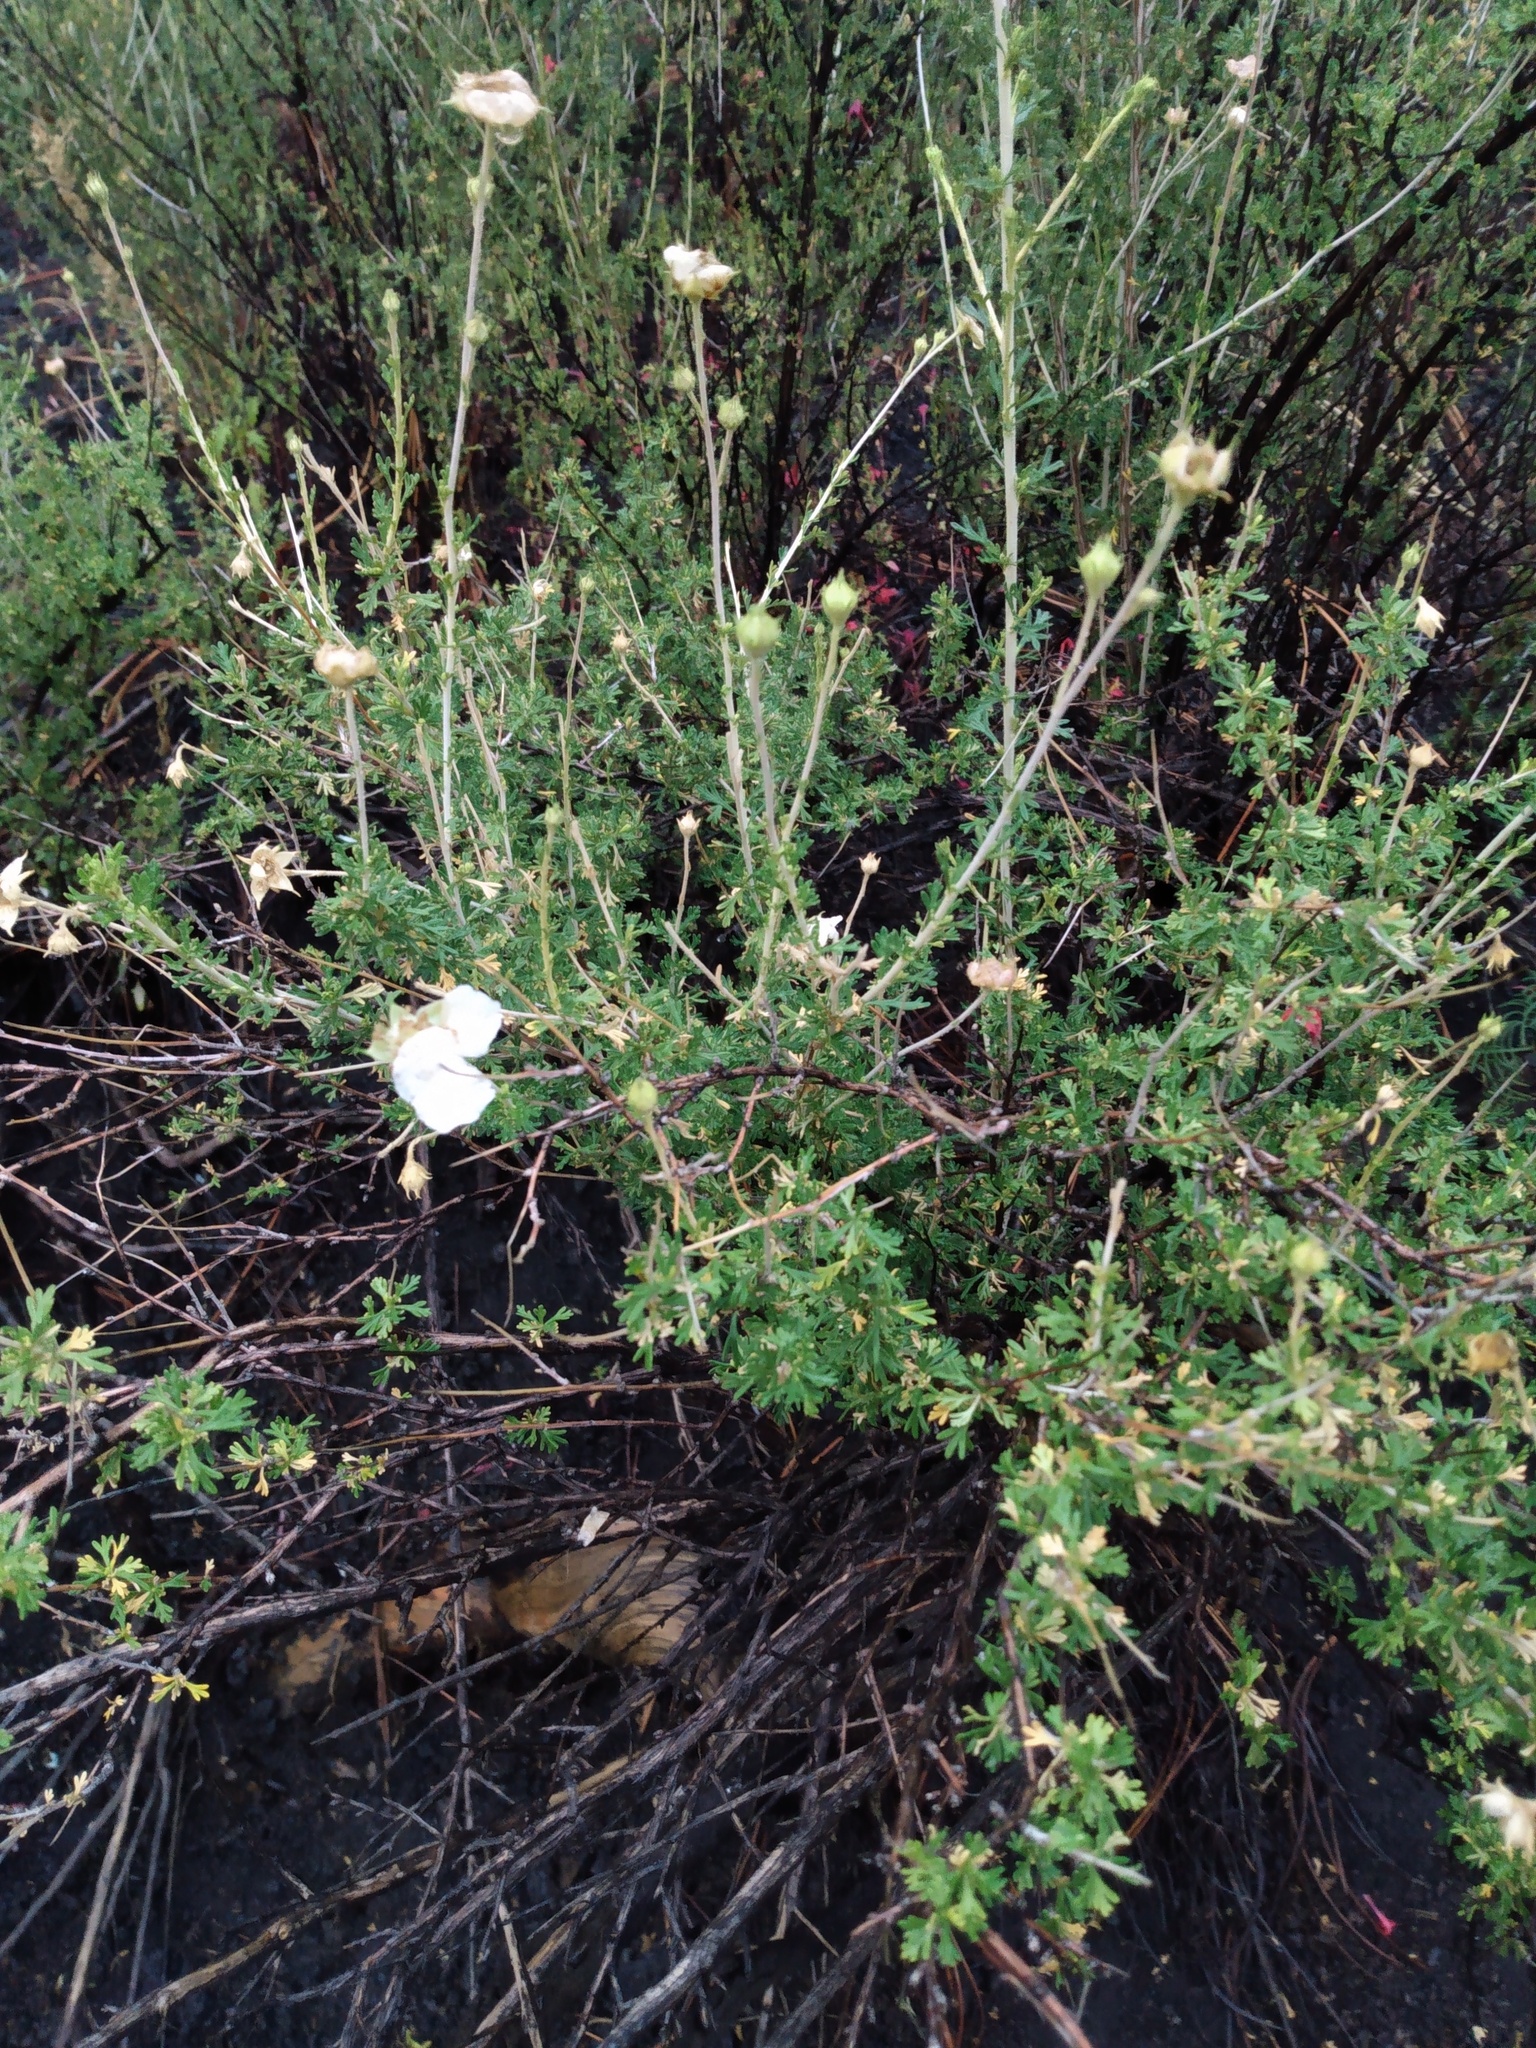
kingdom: Plantae
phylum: Tracheophyta
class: Magnoliopsida
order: Rosales
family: Rosaceae
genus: Fallugia
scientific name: Fallugia paradoxa
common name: Apache-plume
